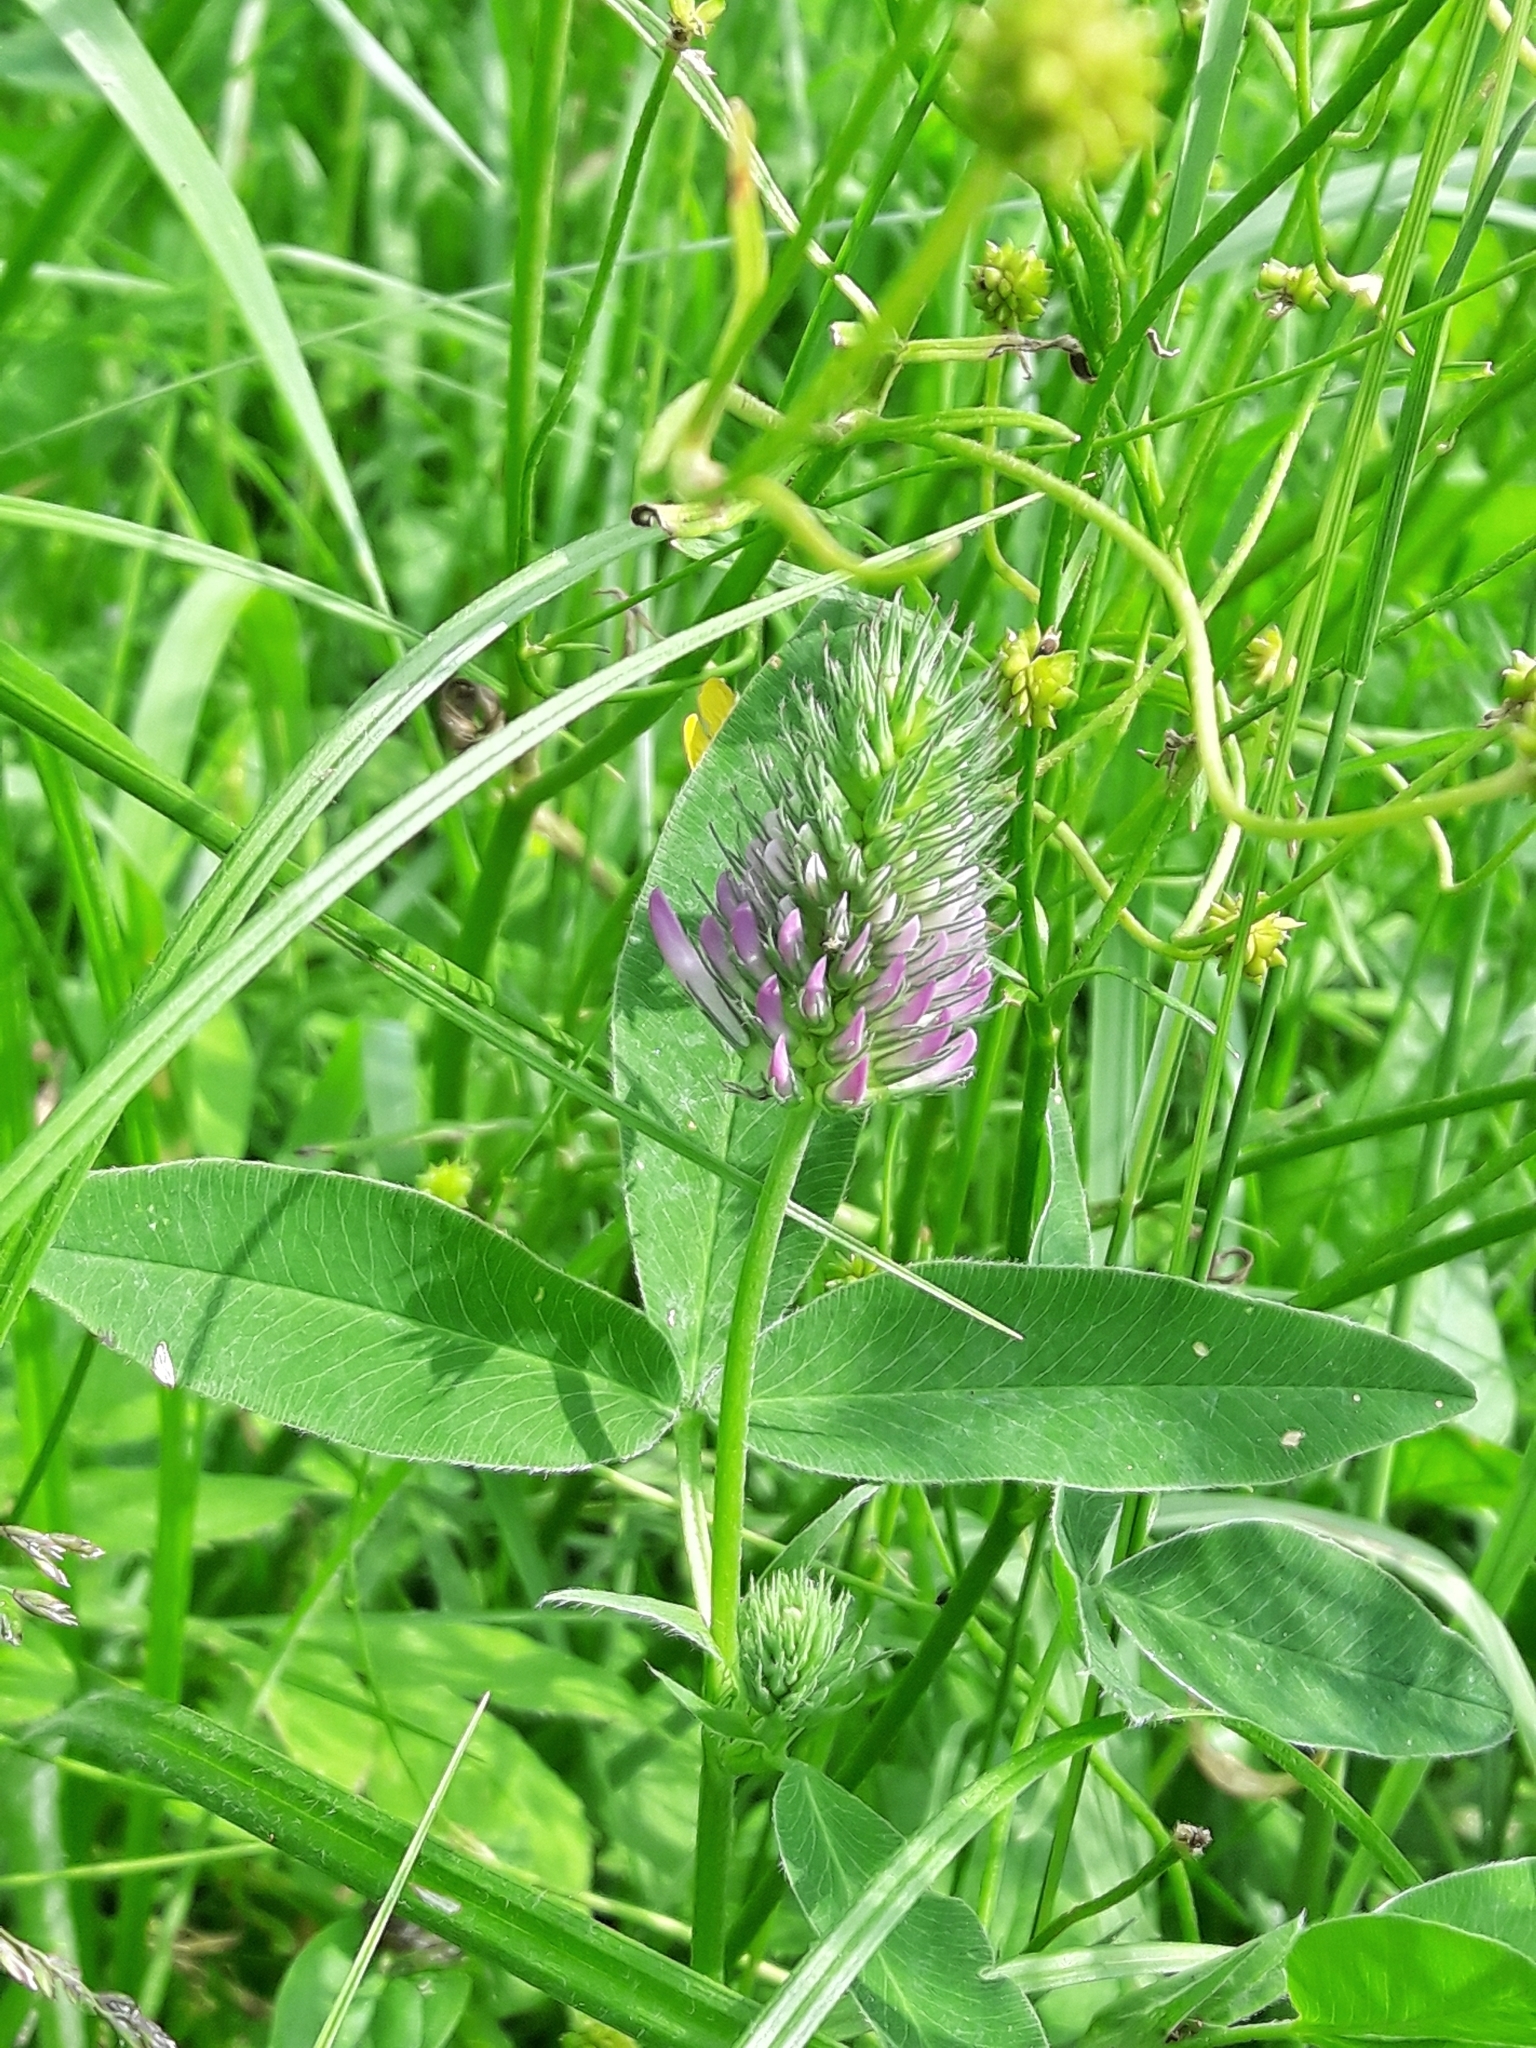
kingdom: Plantae
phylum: Tracheophyta
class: Magnoliopsida
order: Fabales
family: Fabaceae
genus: Trifolium
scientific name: Trifolium medium
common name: Zigzag clover
